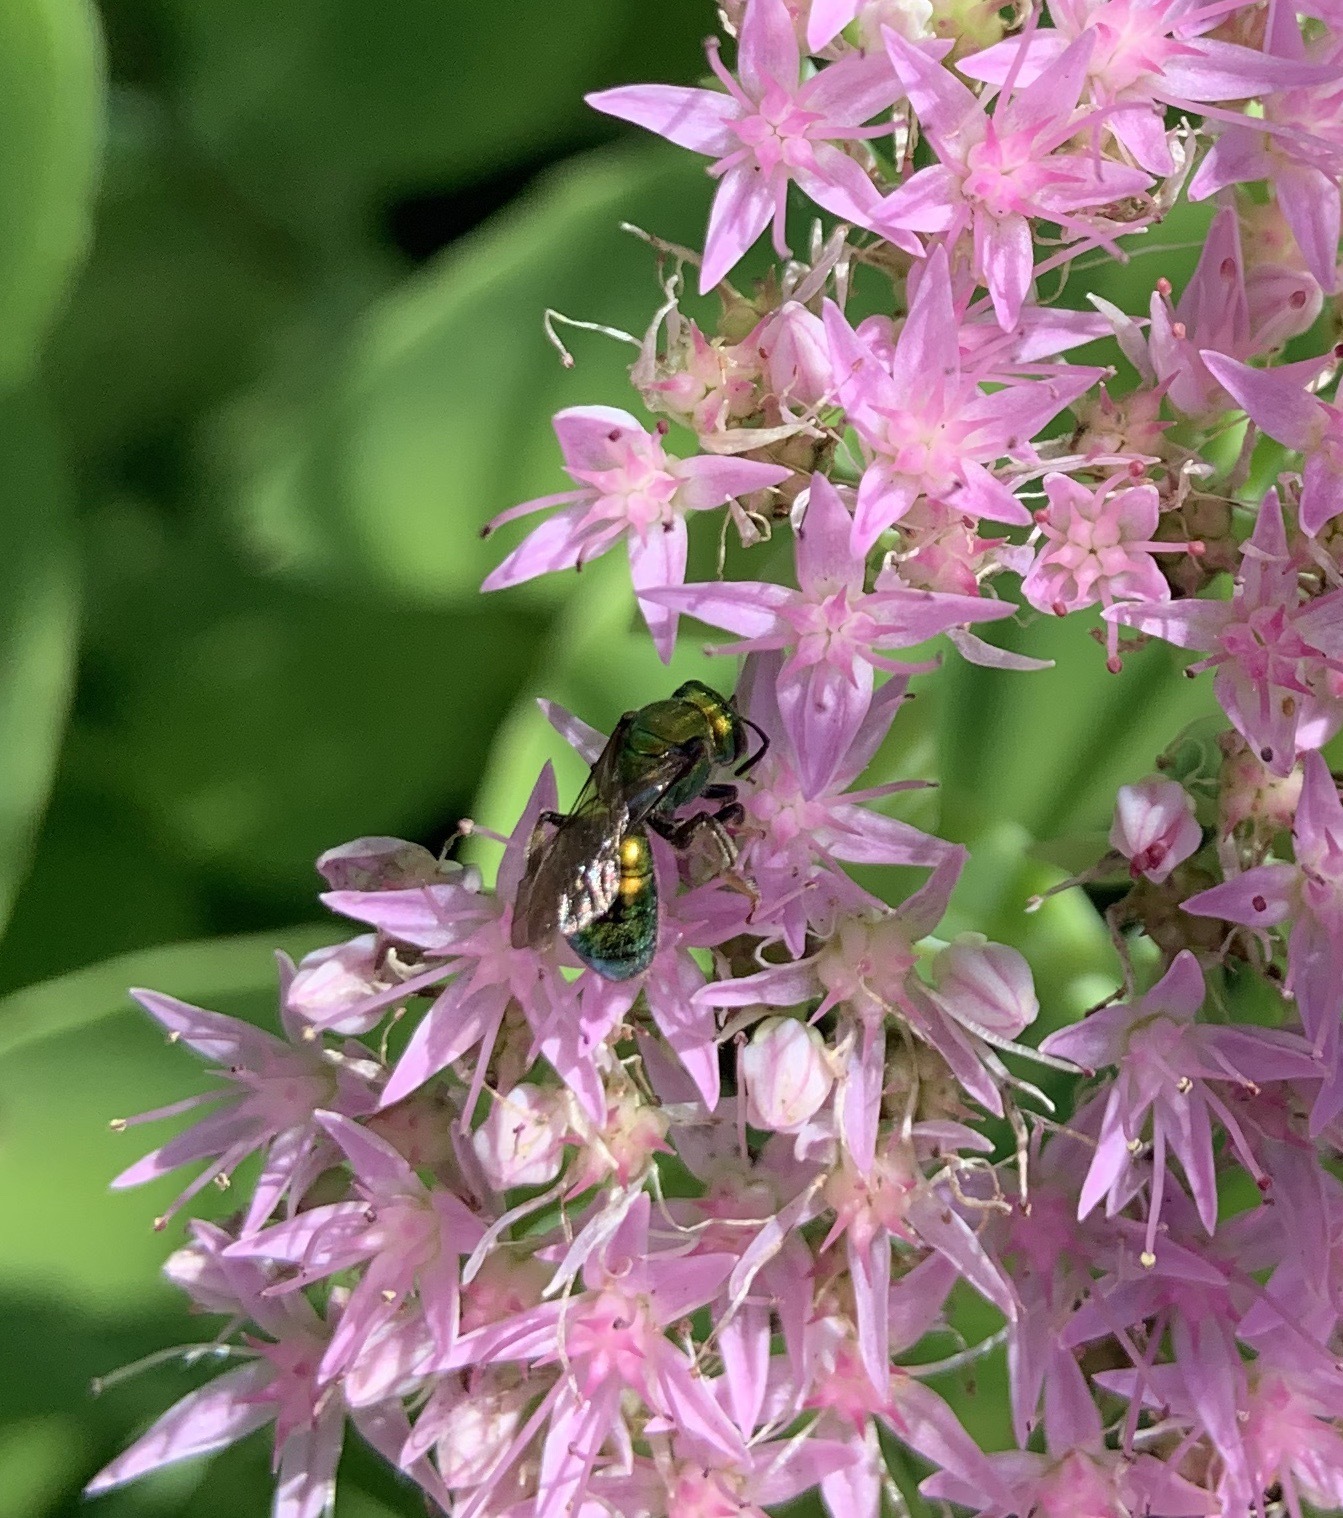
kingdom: Animalia
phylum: Arthropoda
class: Insecta
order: Hymenoptera
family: Halictidae
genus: Augochlora
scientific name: Augochlora pura
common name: Pure green sweat bee
